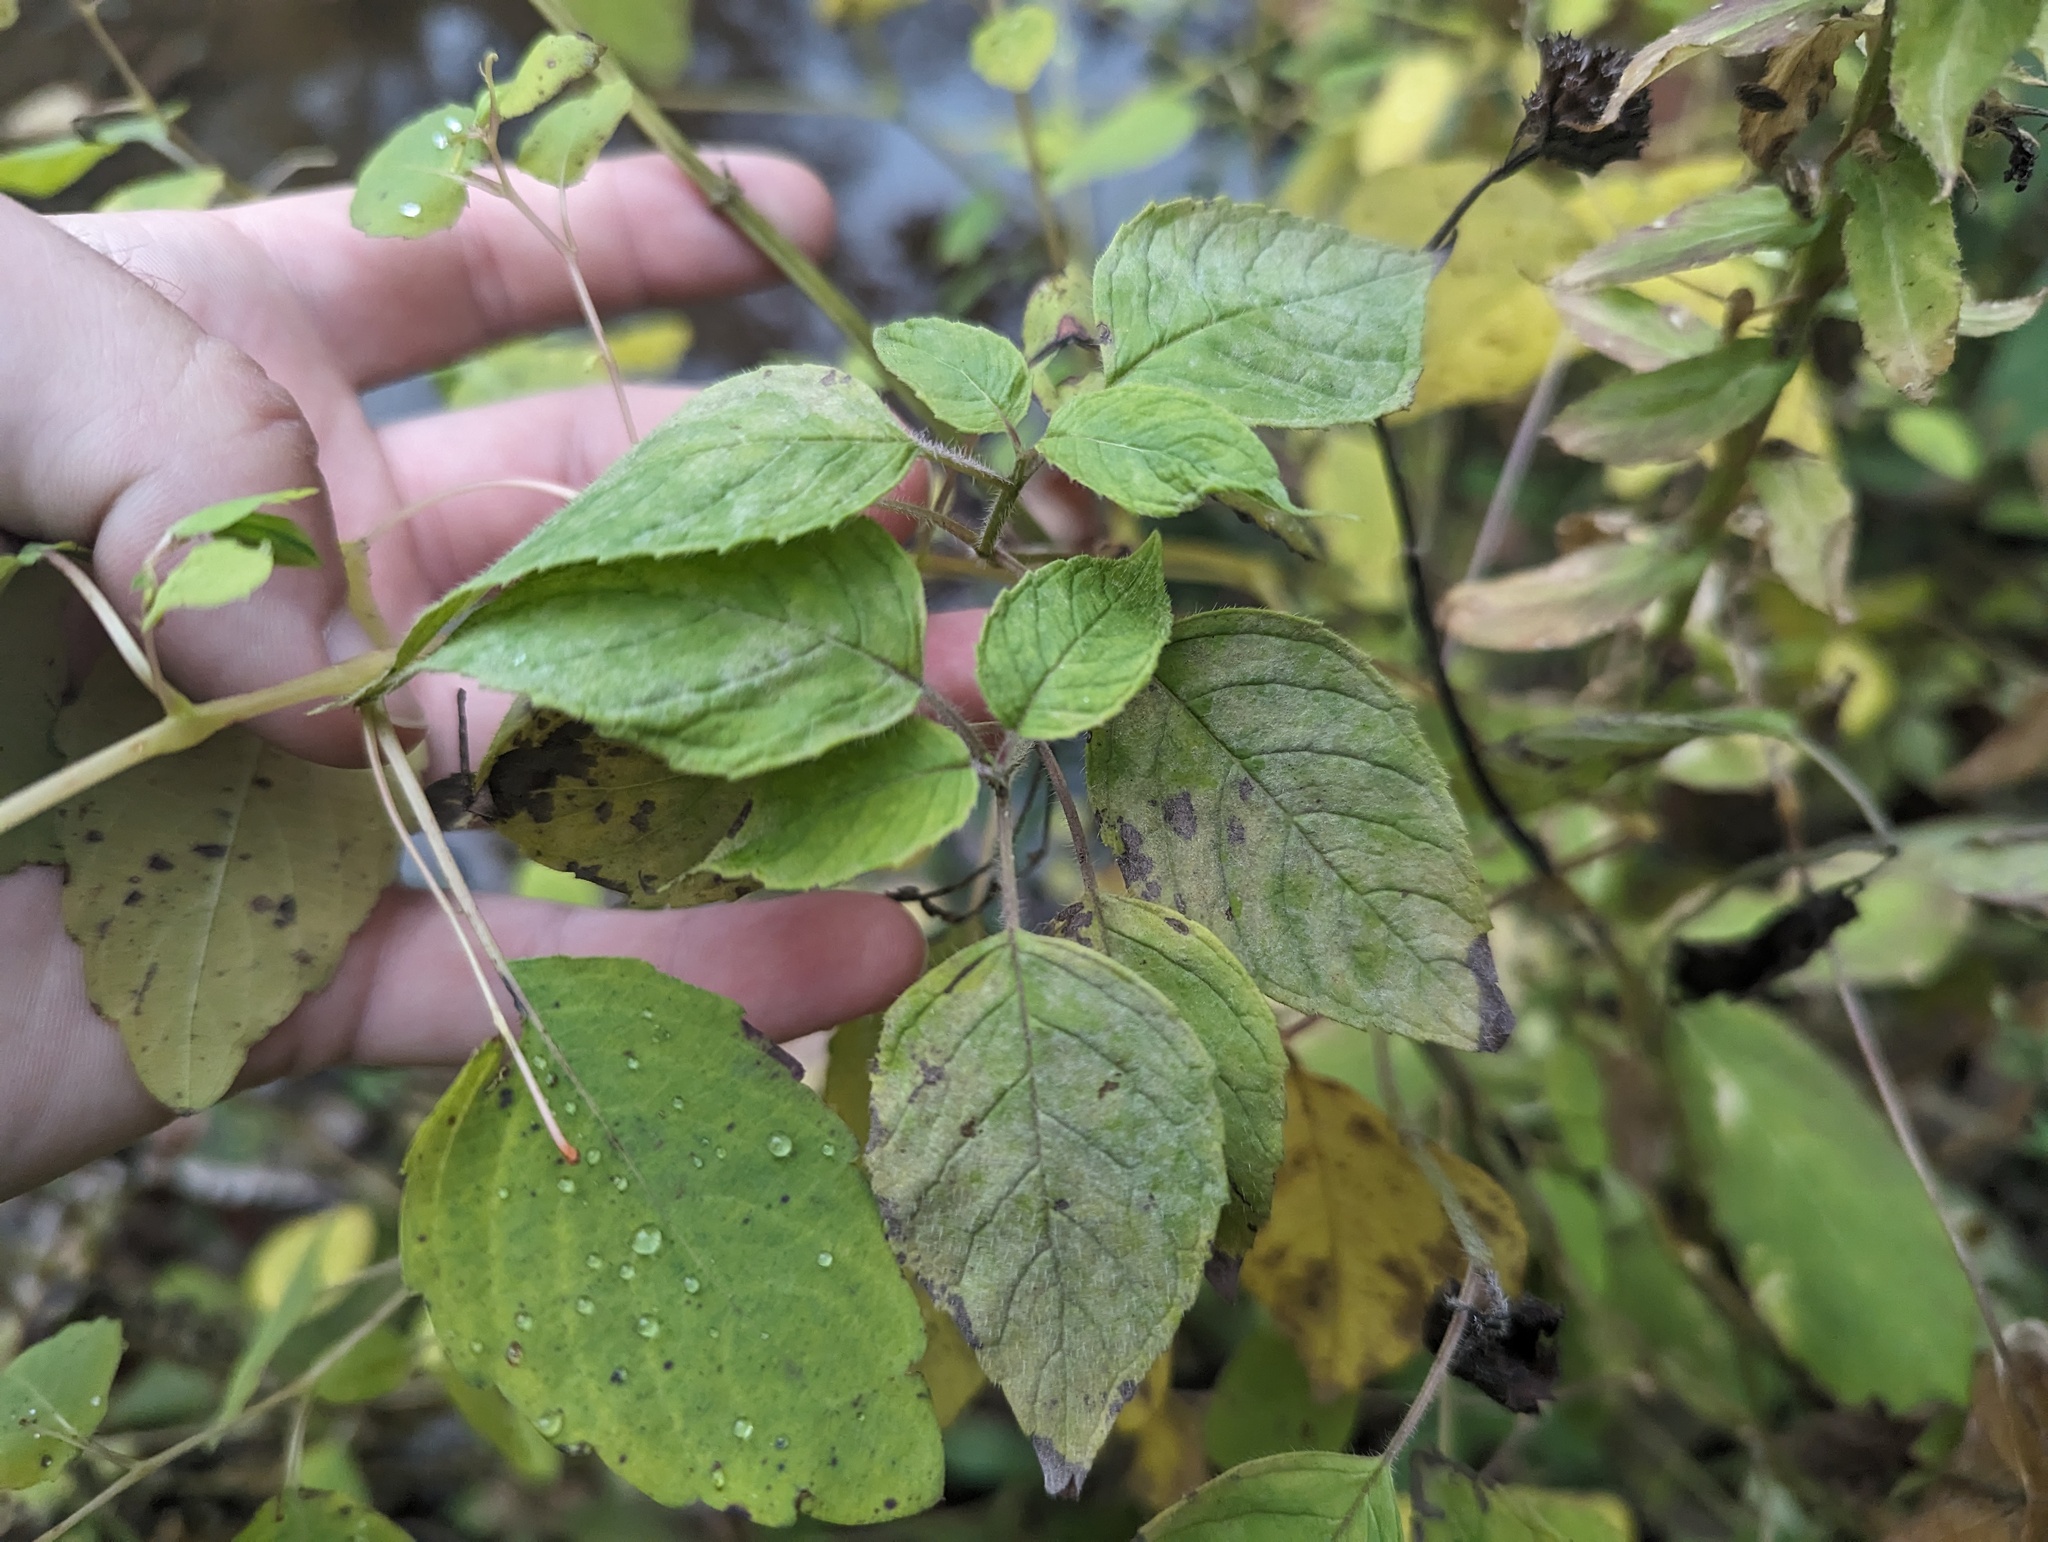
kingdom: Plantae
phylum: Tracheophyta
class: Magnoliopsida
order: Lamiales
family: Lamiaceae
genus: Monarda
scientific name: Monarda
